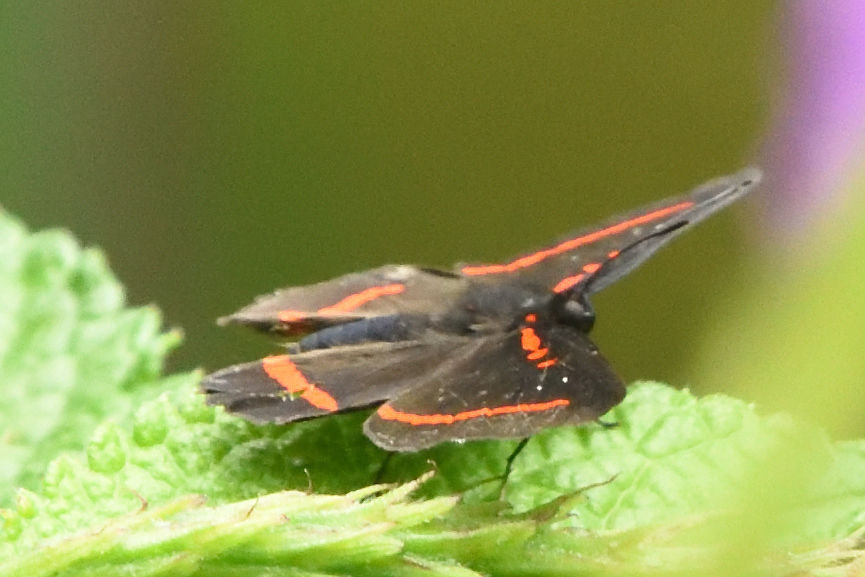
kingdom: Animalia
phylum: Arthropoda
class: Insecta
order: Lepidoptera
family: Riodinidae
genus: Amarynthis
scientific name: Amarynthis meneria
